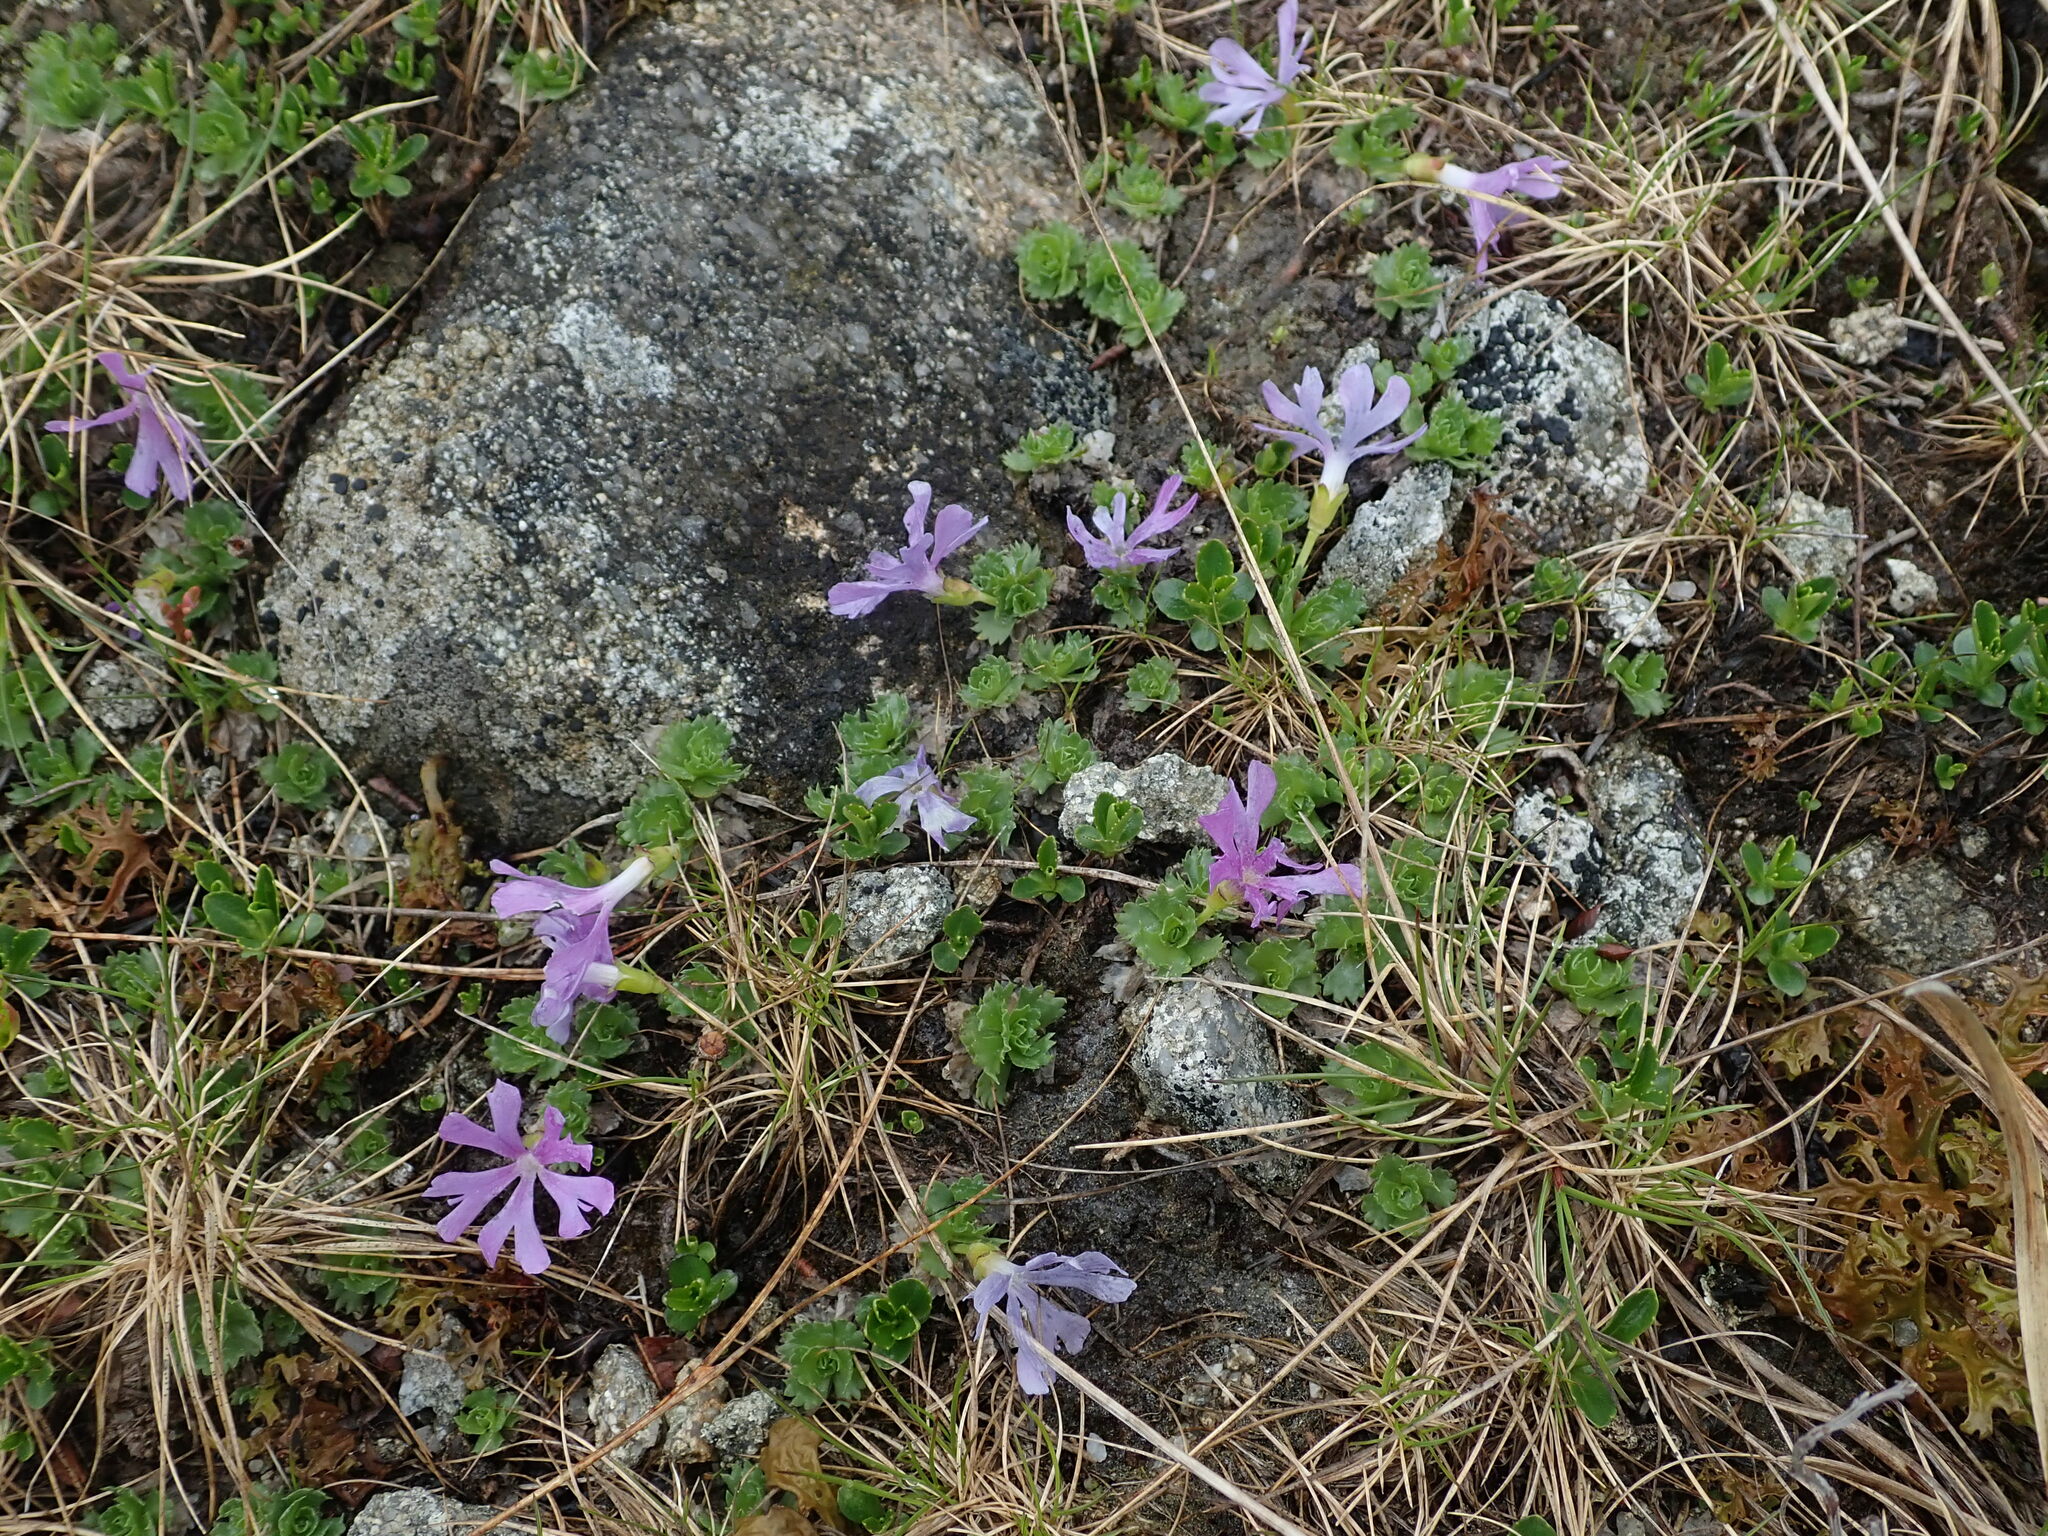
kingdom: Plantae
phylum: Tracheophyta
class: Magnoliopsida
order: Ericales
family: Primulaceae
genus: Primula
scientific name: Primula minima
